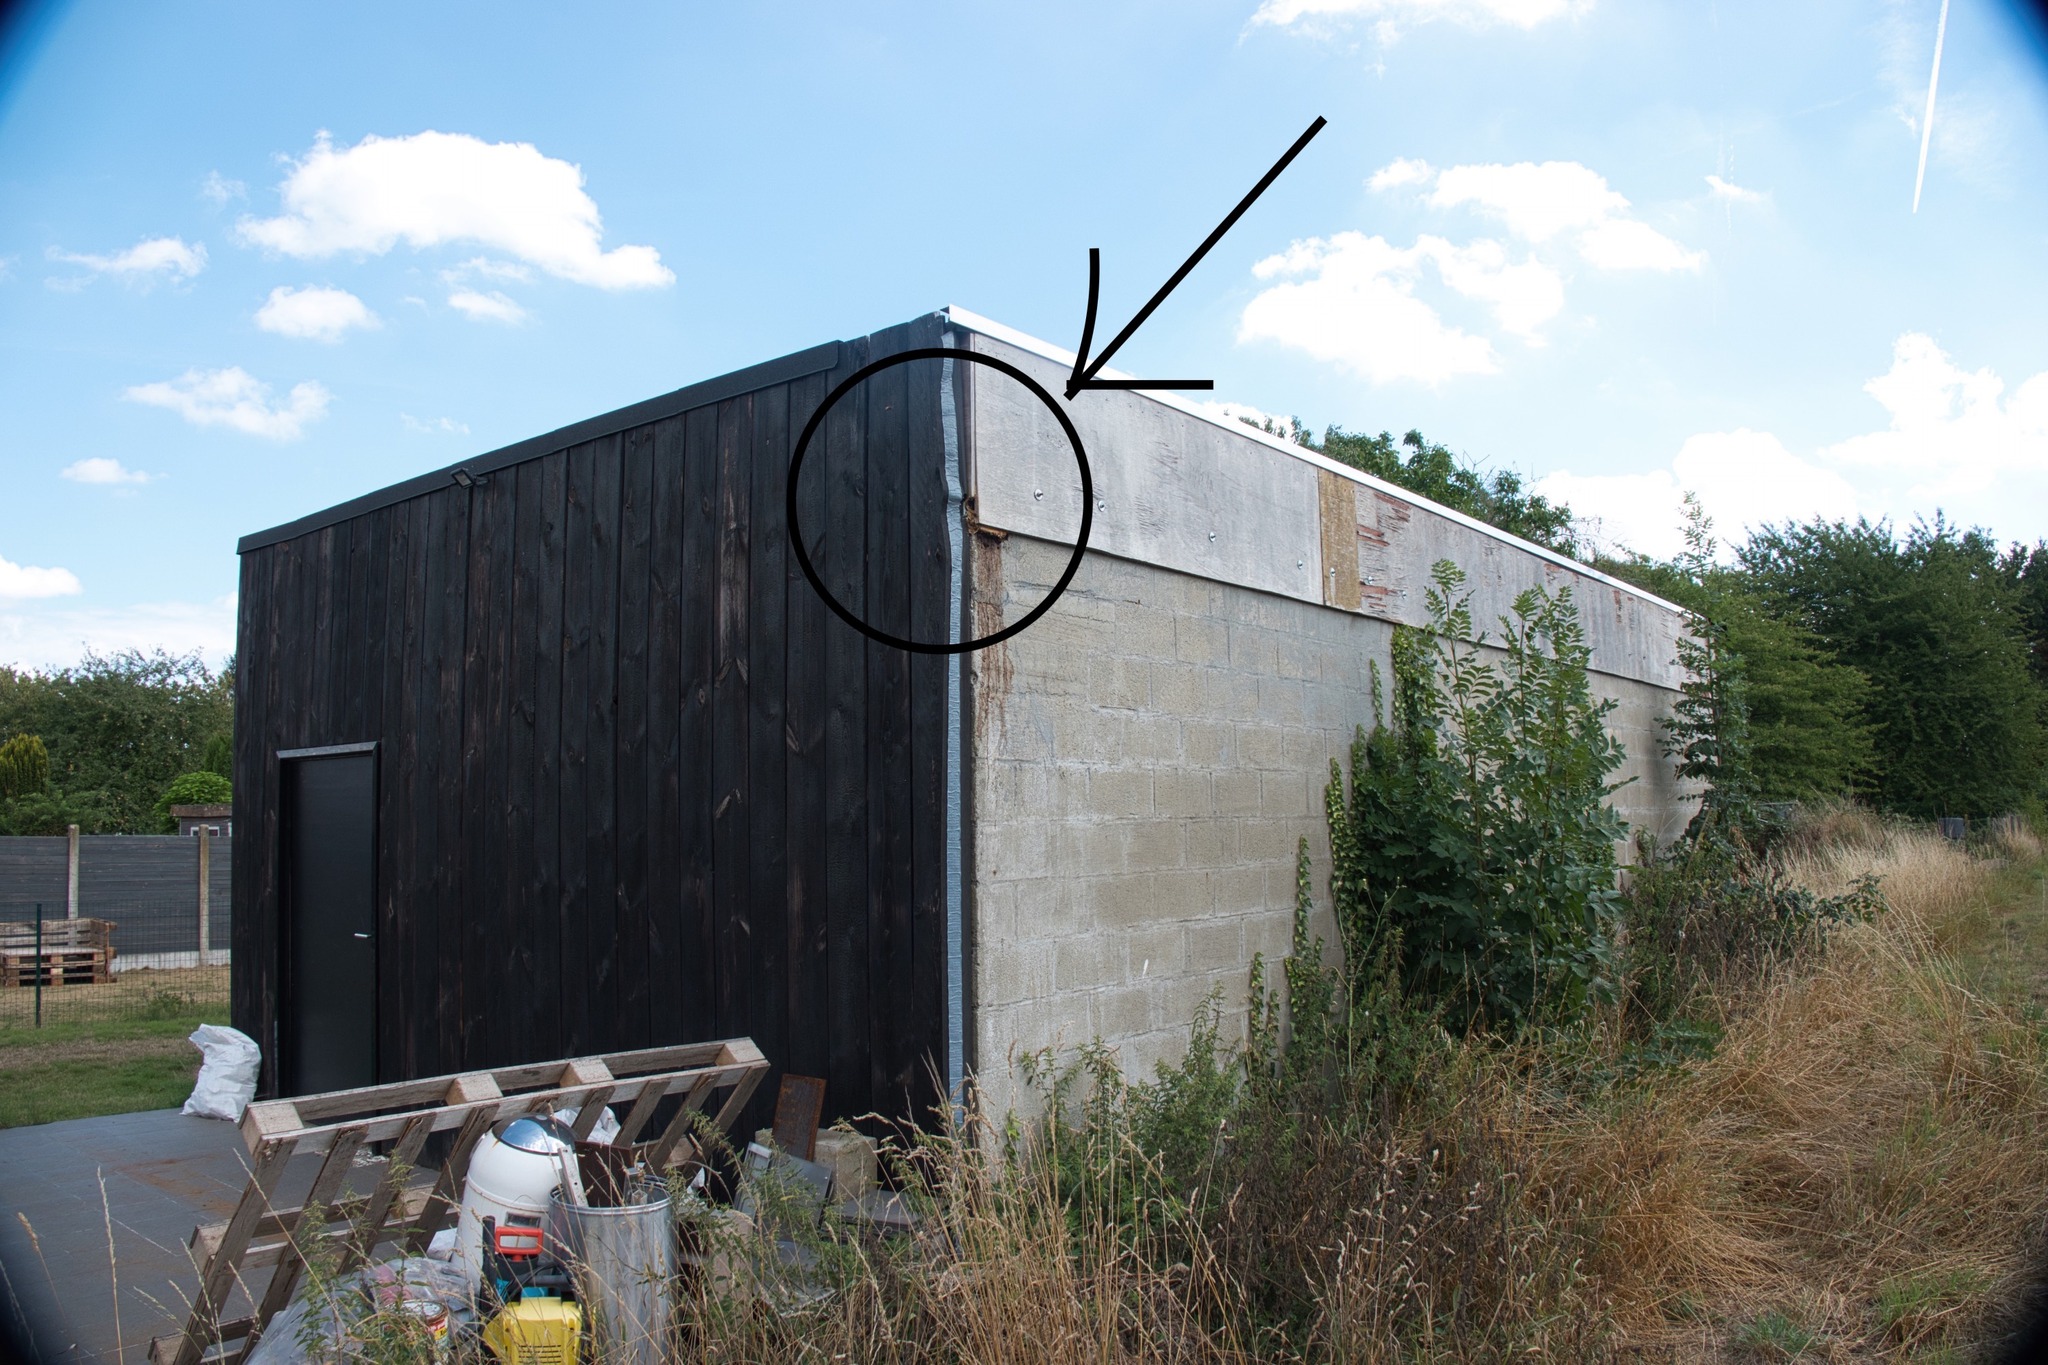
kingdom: Animalia
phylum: Arthropoda
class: Insecta
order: Hymenoptera
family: Vespidae
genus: Vespa
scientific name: Vespa crabro
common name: Hornet
